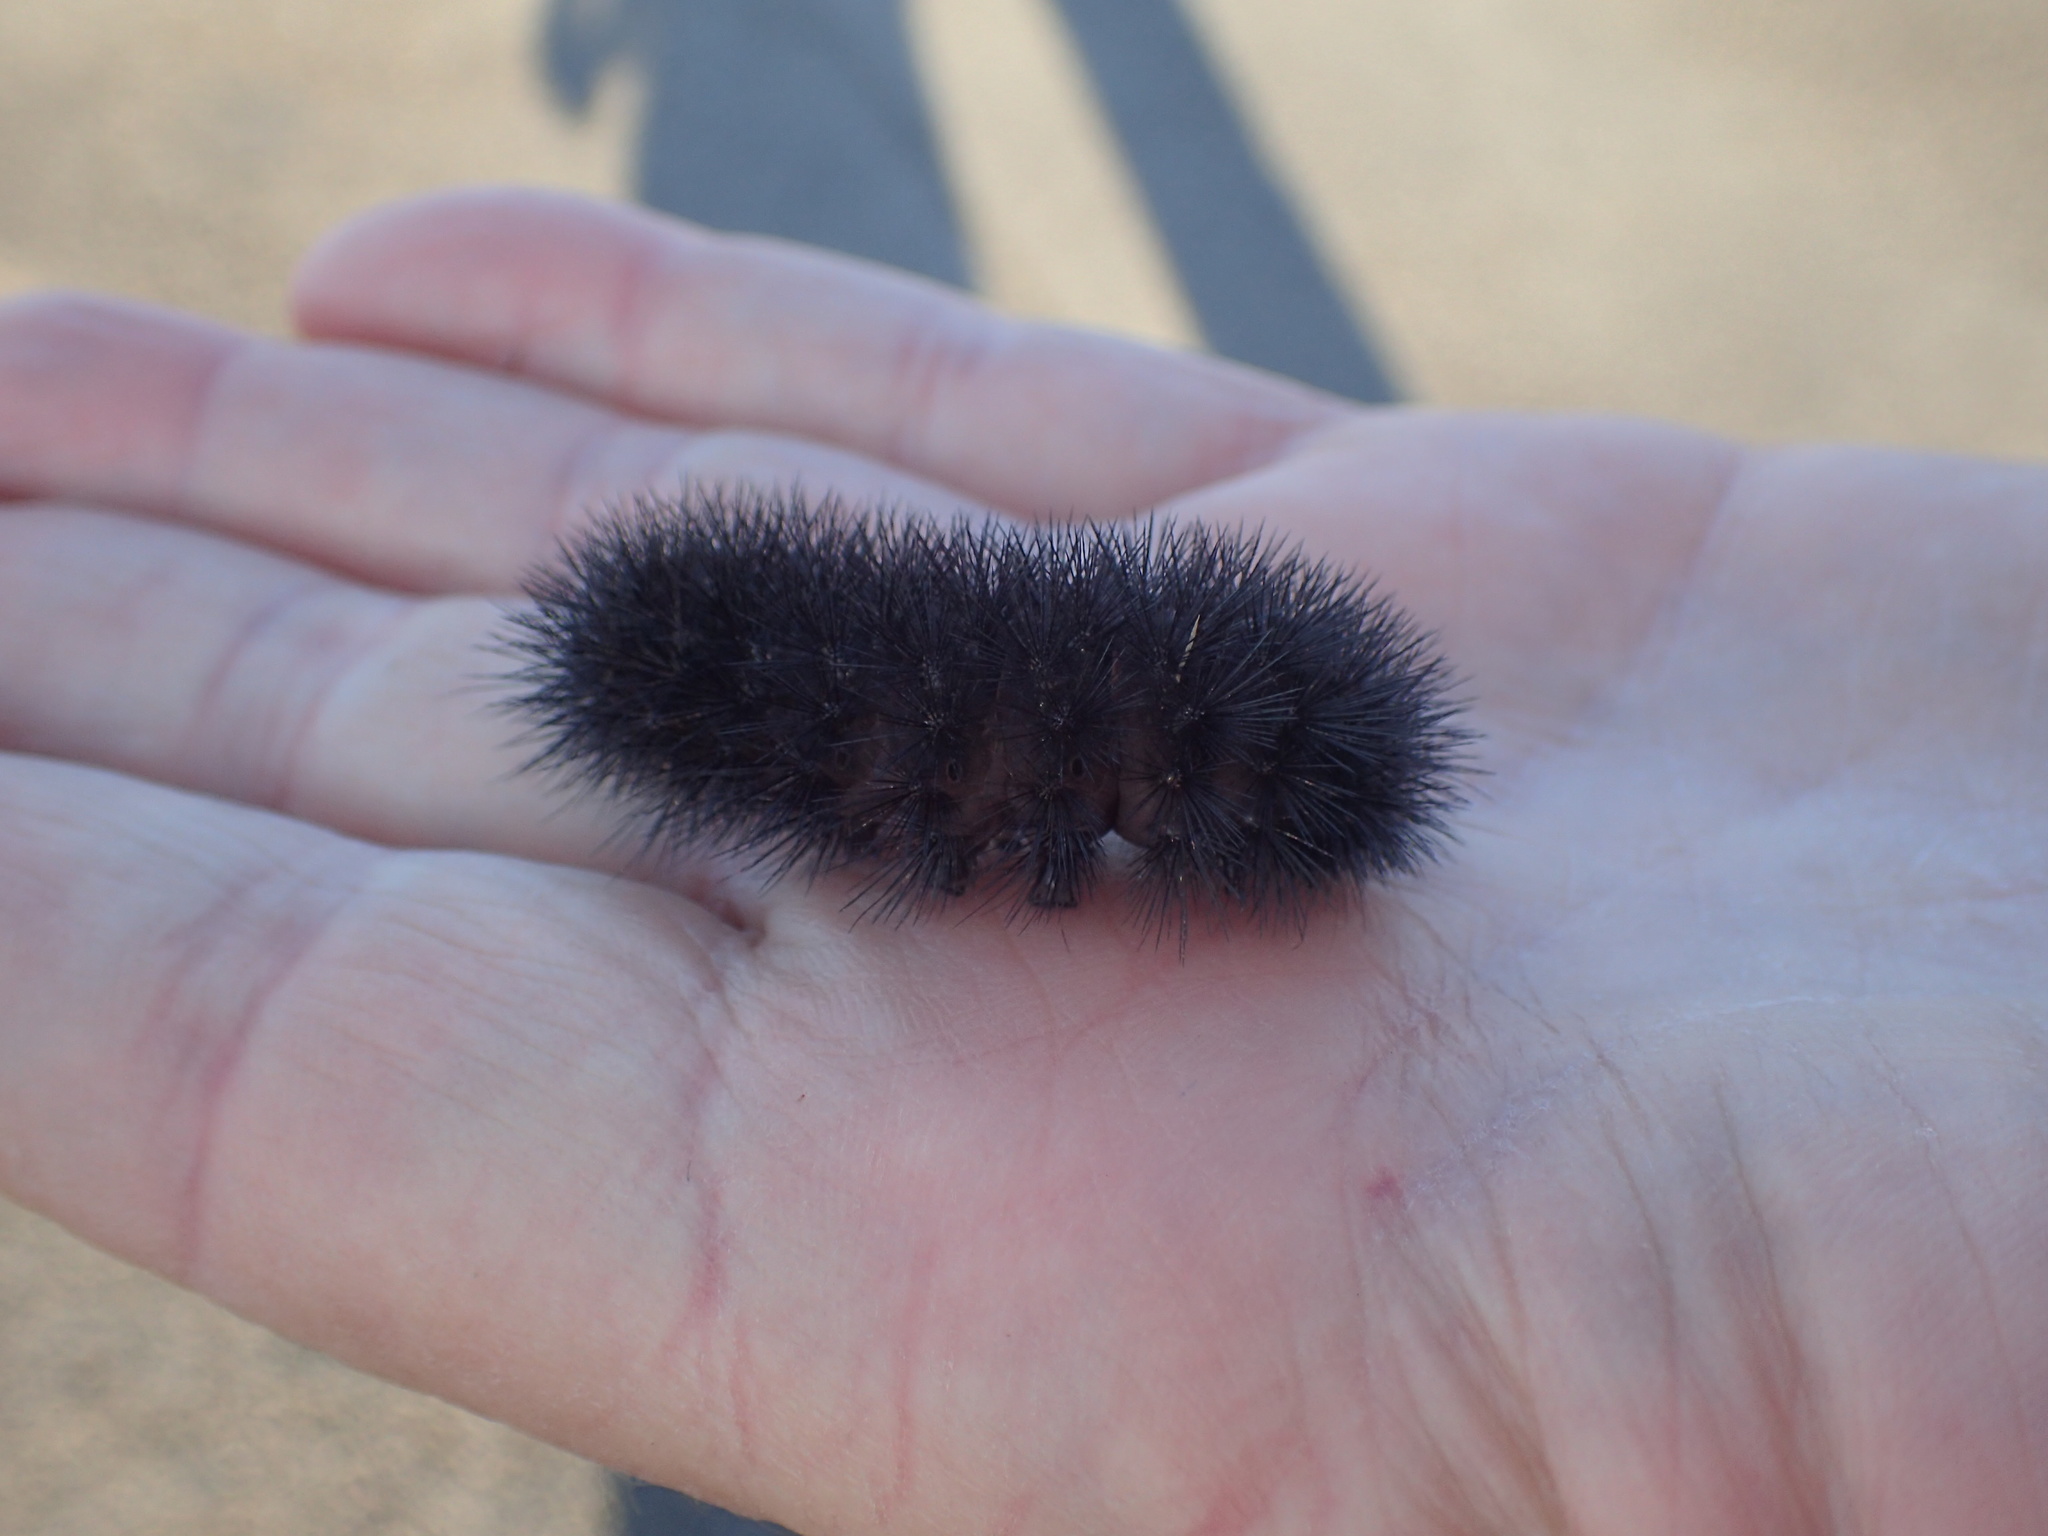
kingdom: Animalia
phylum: Arthropoda
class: Insecta
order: Lepidoptera
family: Erebidae
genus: Hypercompe
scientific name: Hypercompe scribonia
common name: Giant leopard moth
